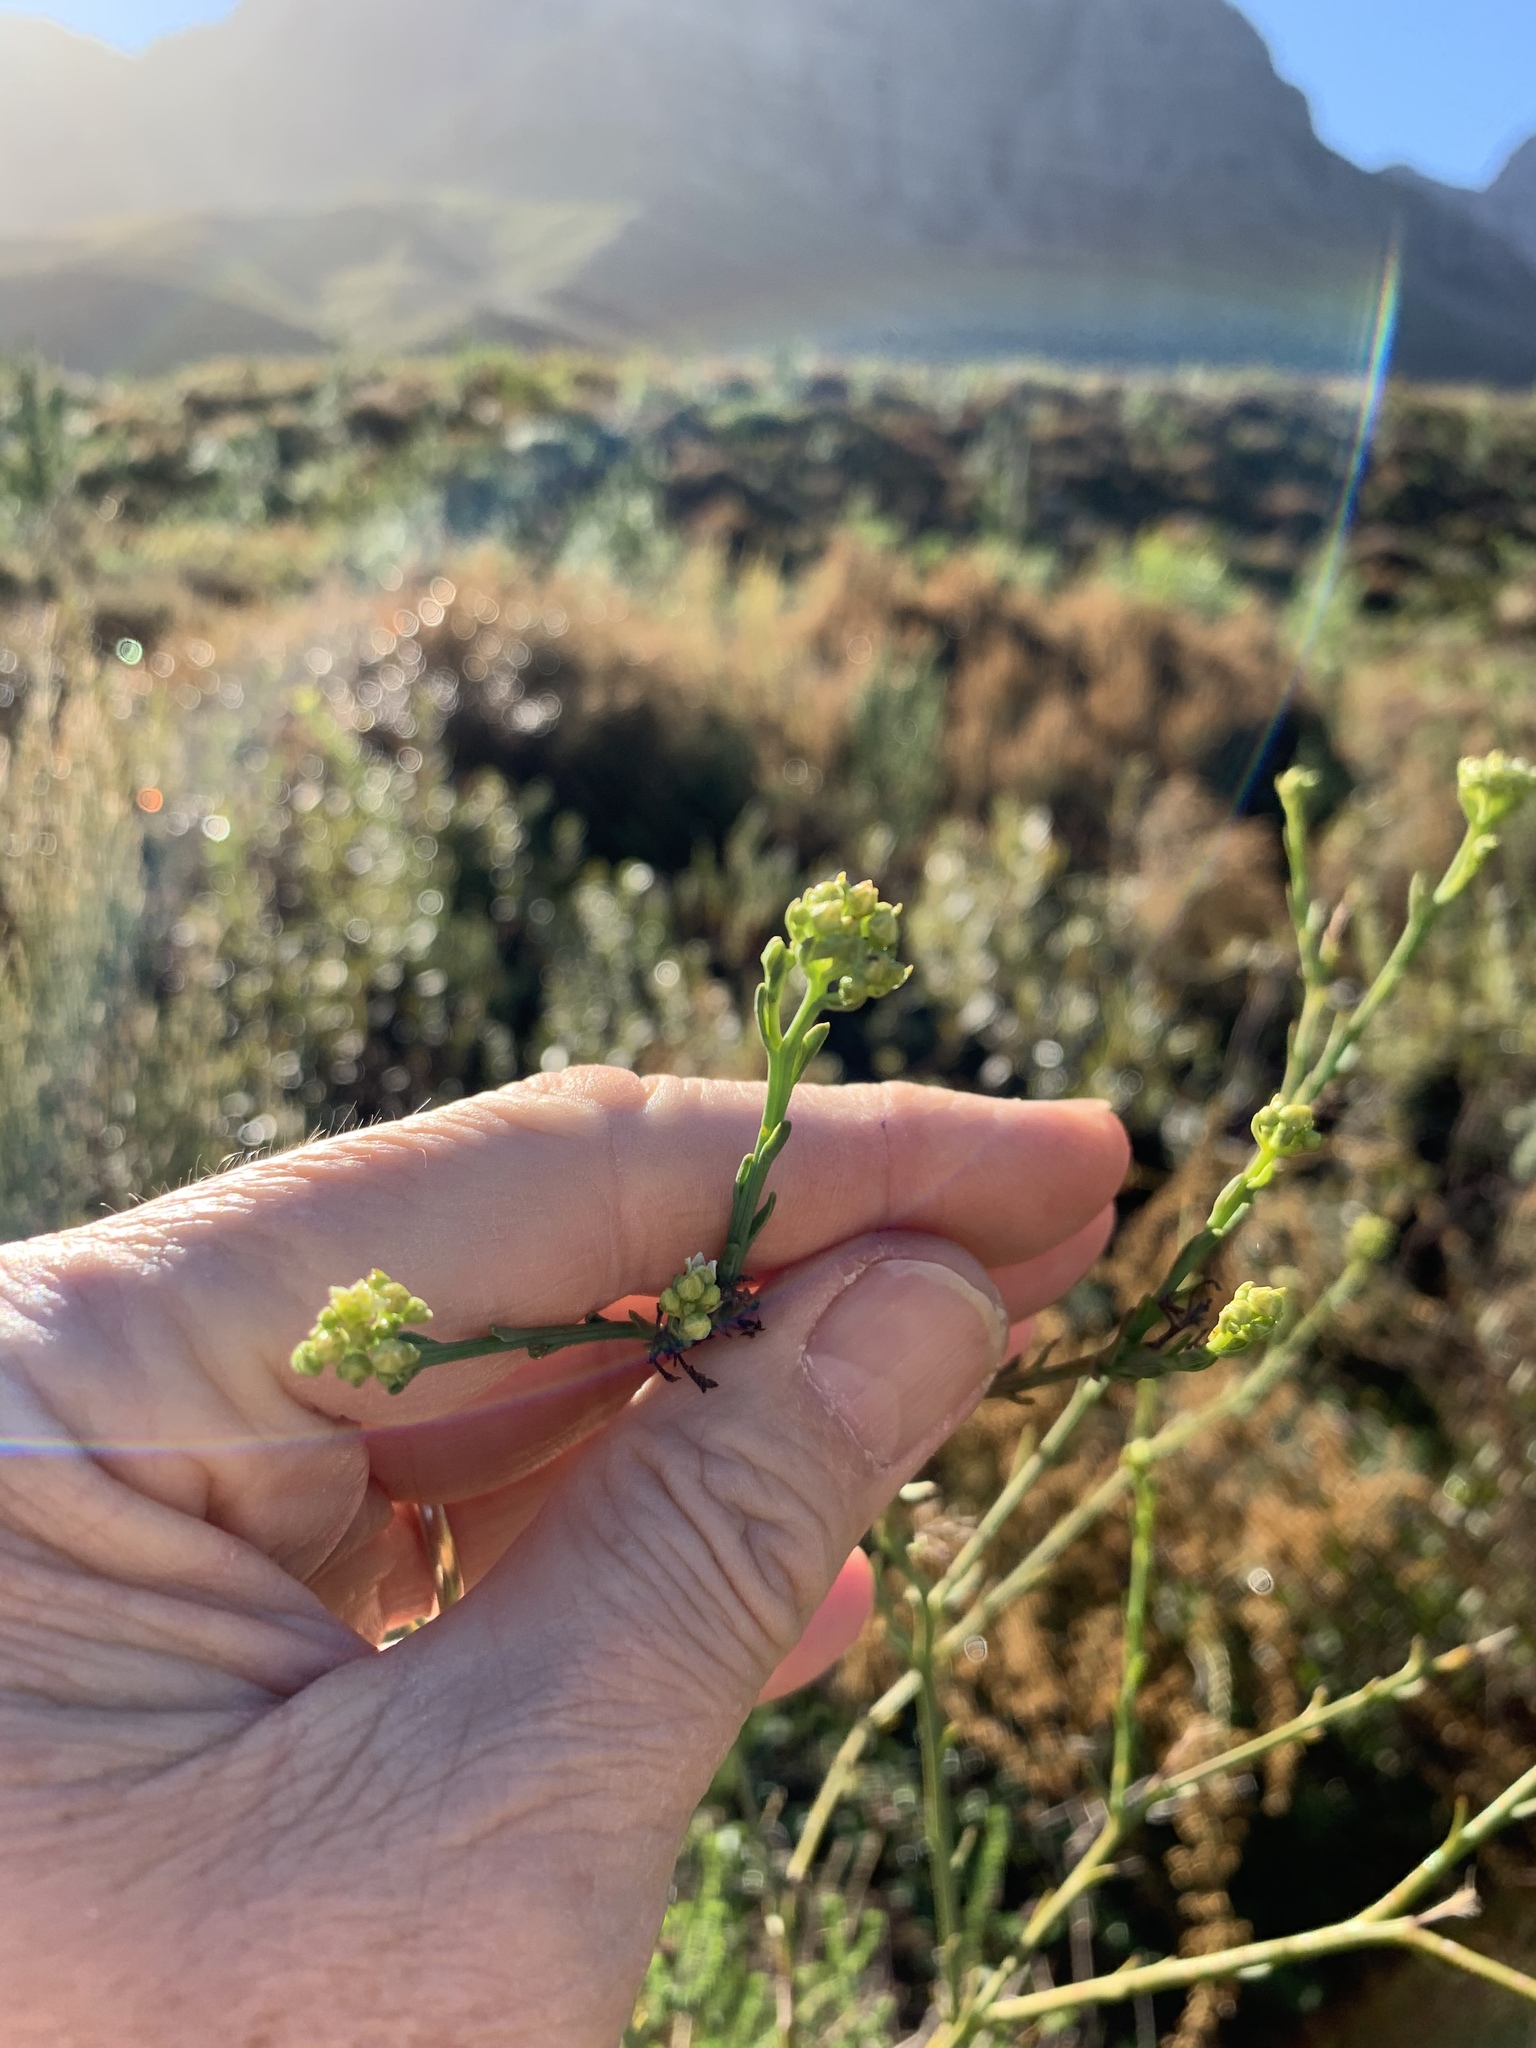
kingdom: Plantae
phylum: Tracheophyta
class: Magnoliopsida
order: Santalales
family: Thesiaceae
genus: Thesium
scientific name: Thesium strictum
